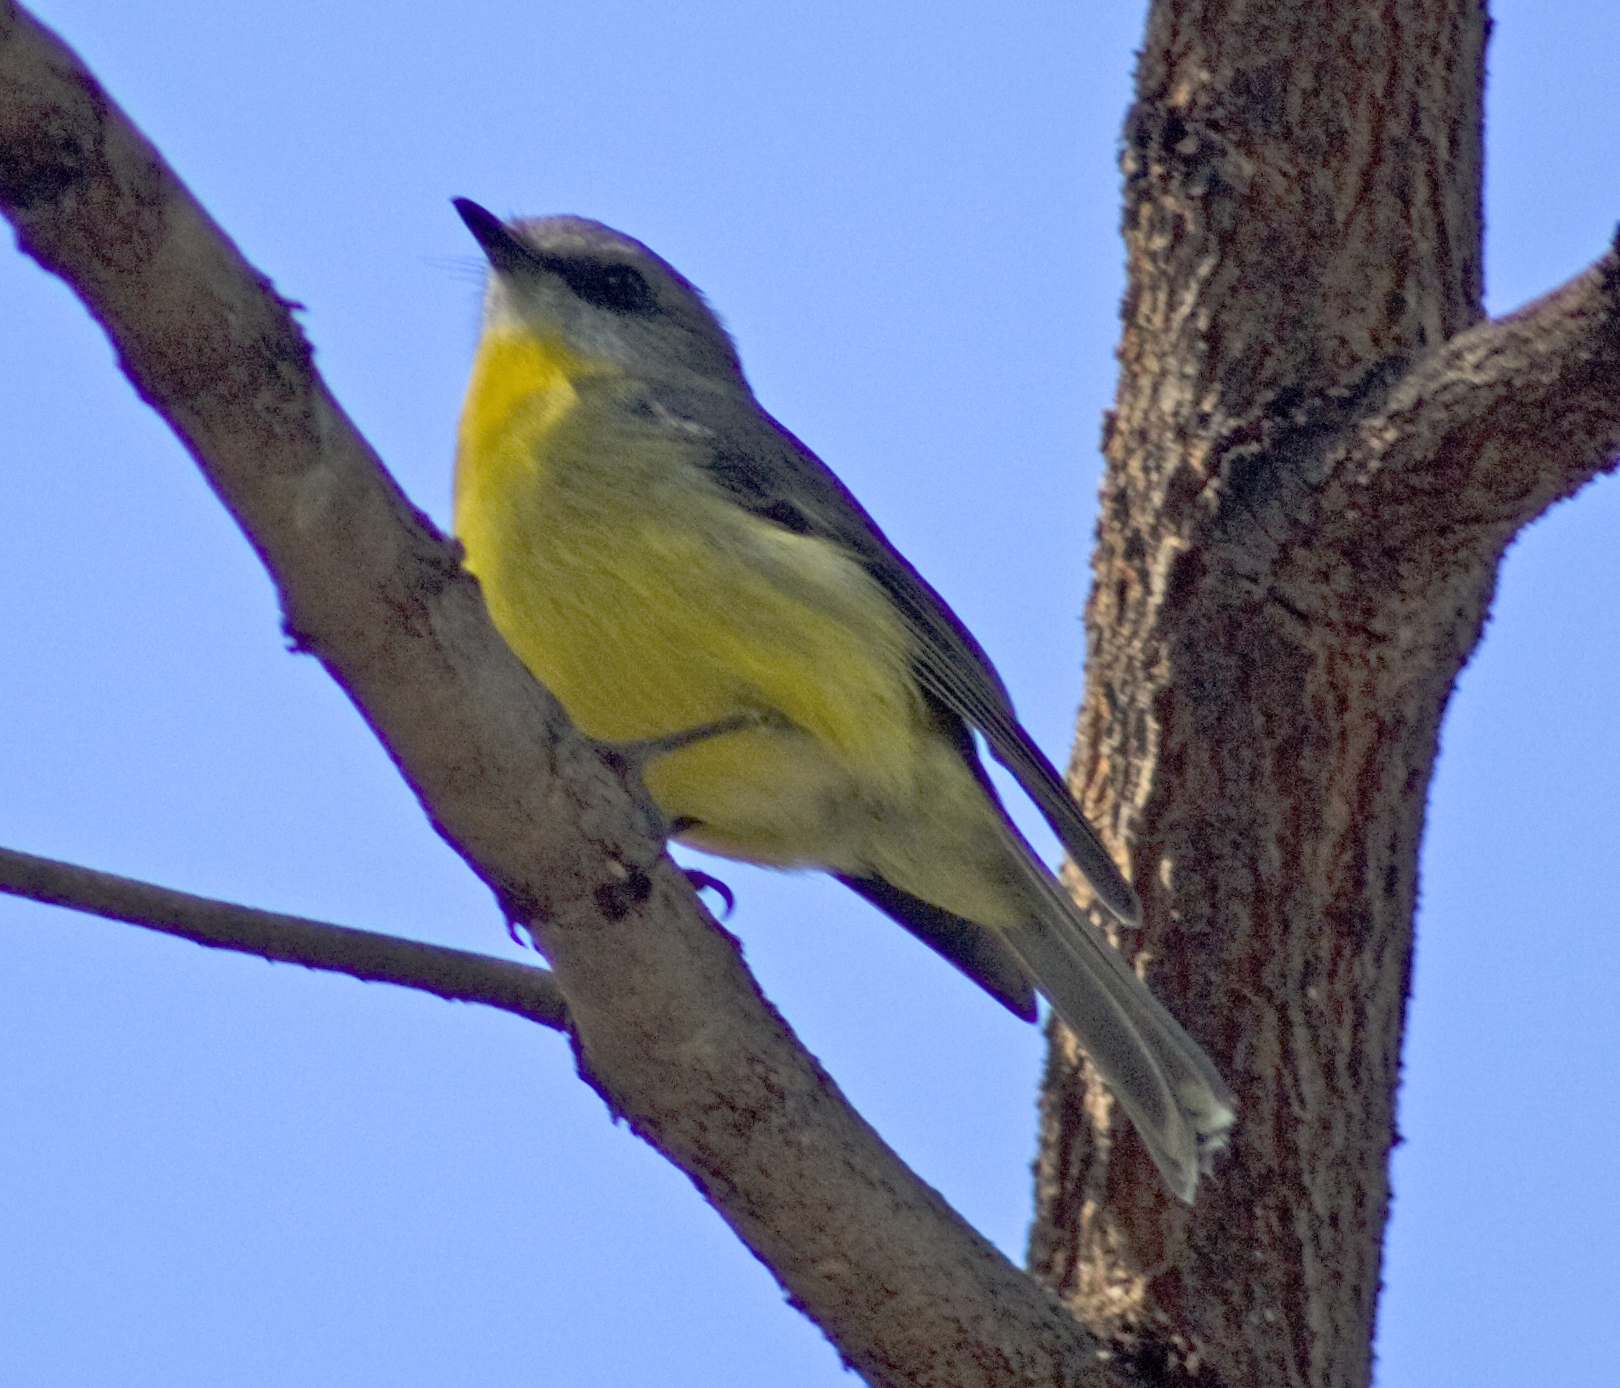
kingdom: Animalia
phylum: Chordata
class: Aves
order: Passeriformes
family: Petroicidae
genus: Eopsaltria
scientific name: Eopsaltria australis
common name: Eastern yellow robin
